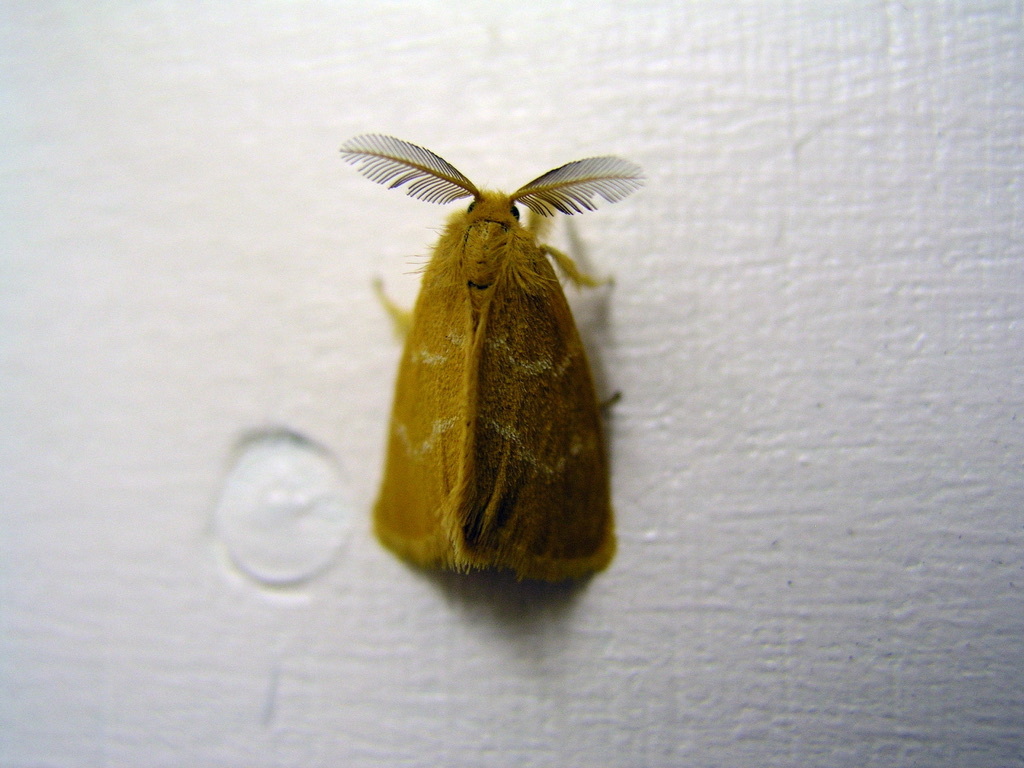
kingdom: Animalia
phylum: Arthropoda
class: Insecta
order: Lepidoptera
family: Erebidae
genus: Euproctis
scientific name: Euproctis lutea
